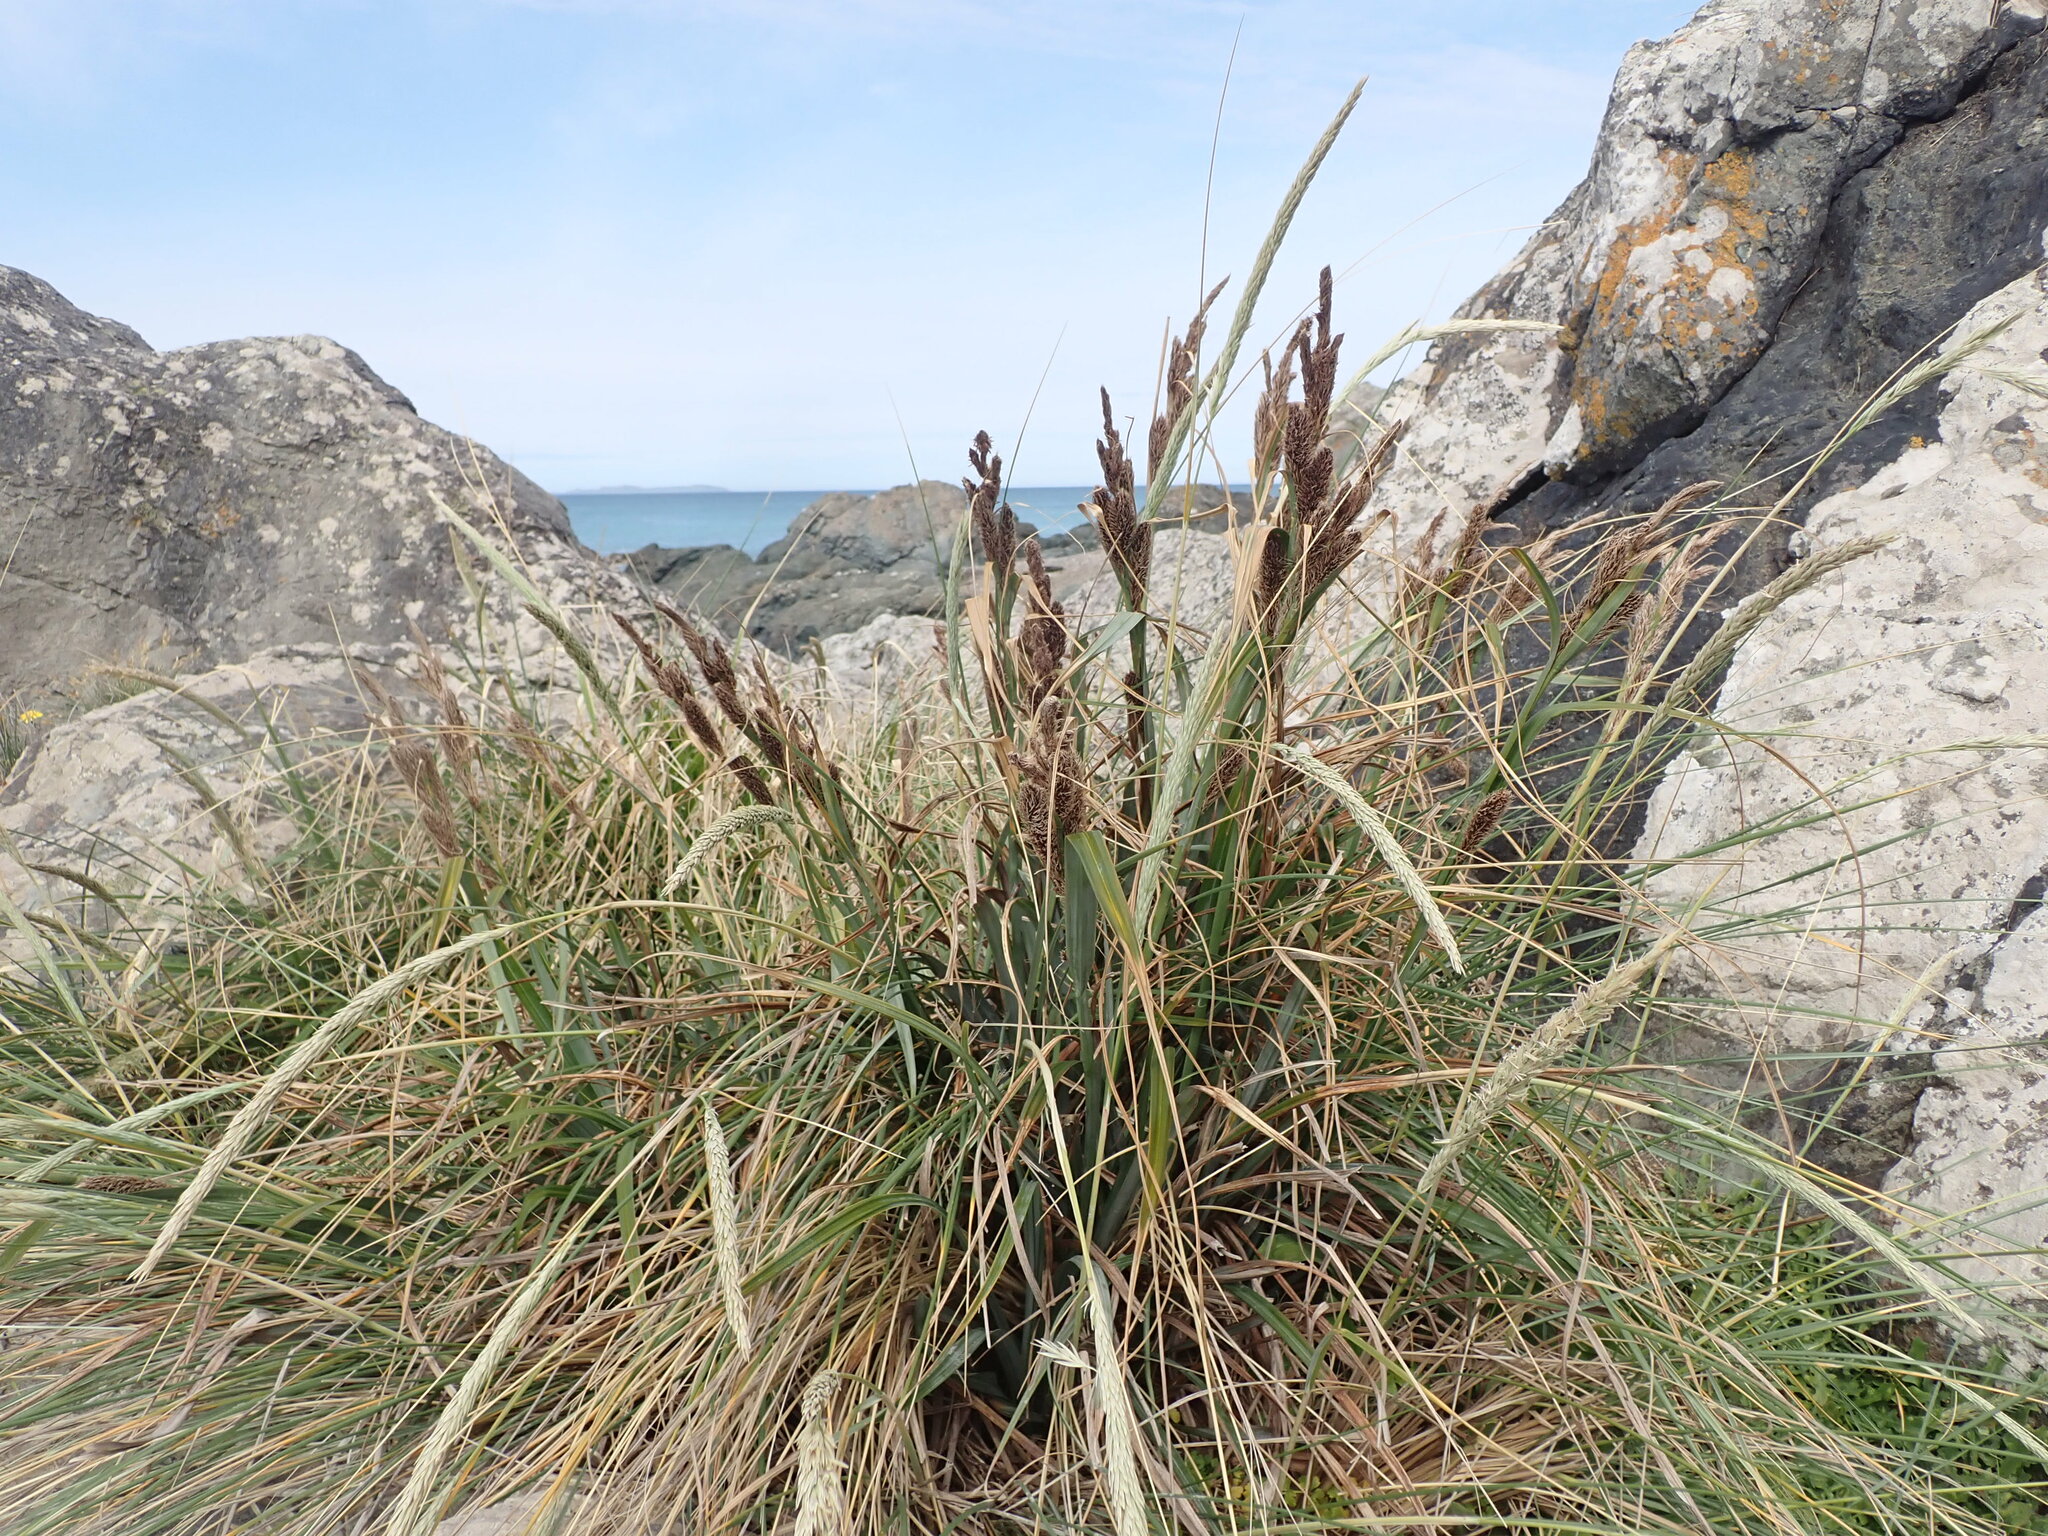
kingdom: Plantae
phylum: Tracheophyta
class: Liliopsida
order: Poales
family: Cyperaceae
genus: Carex
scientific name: Carex trifida
